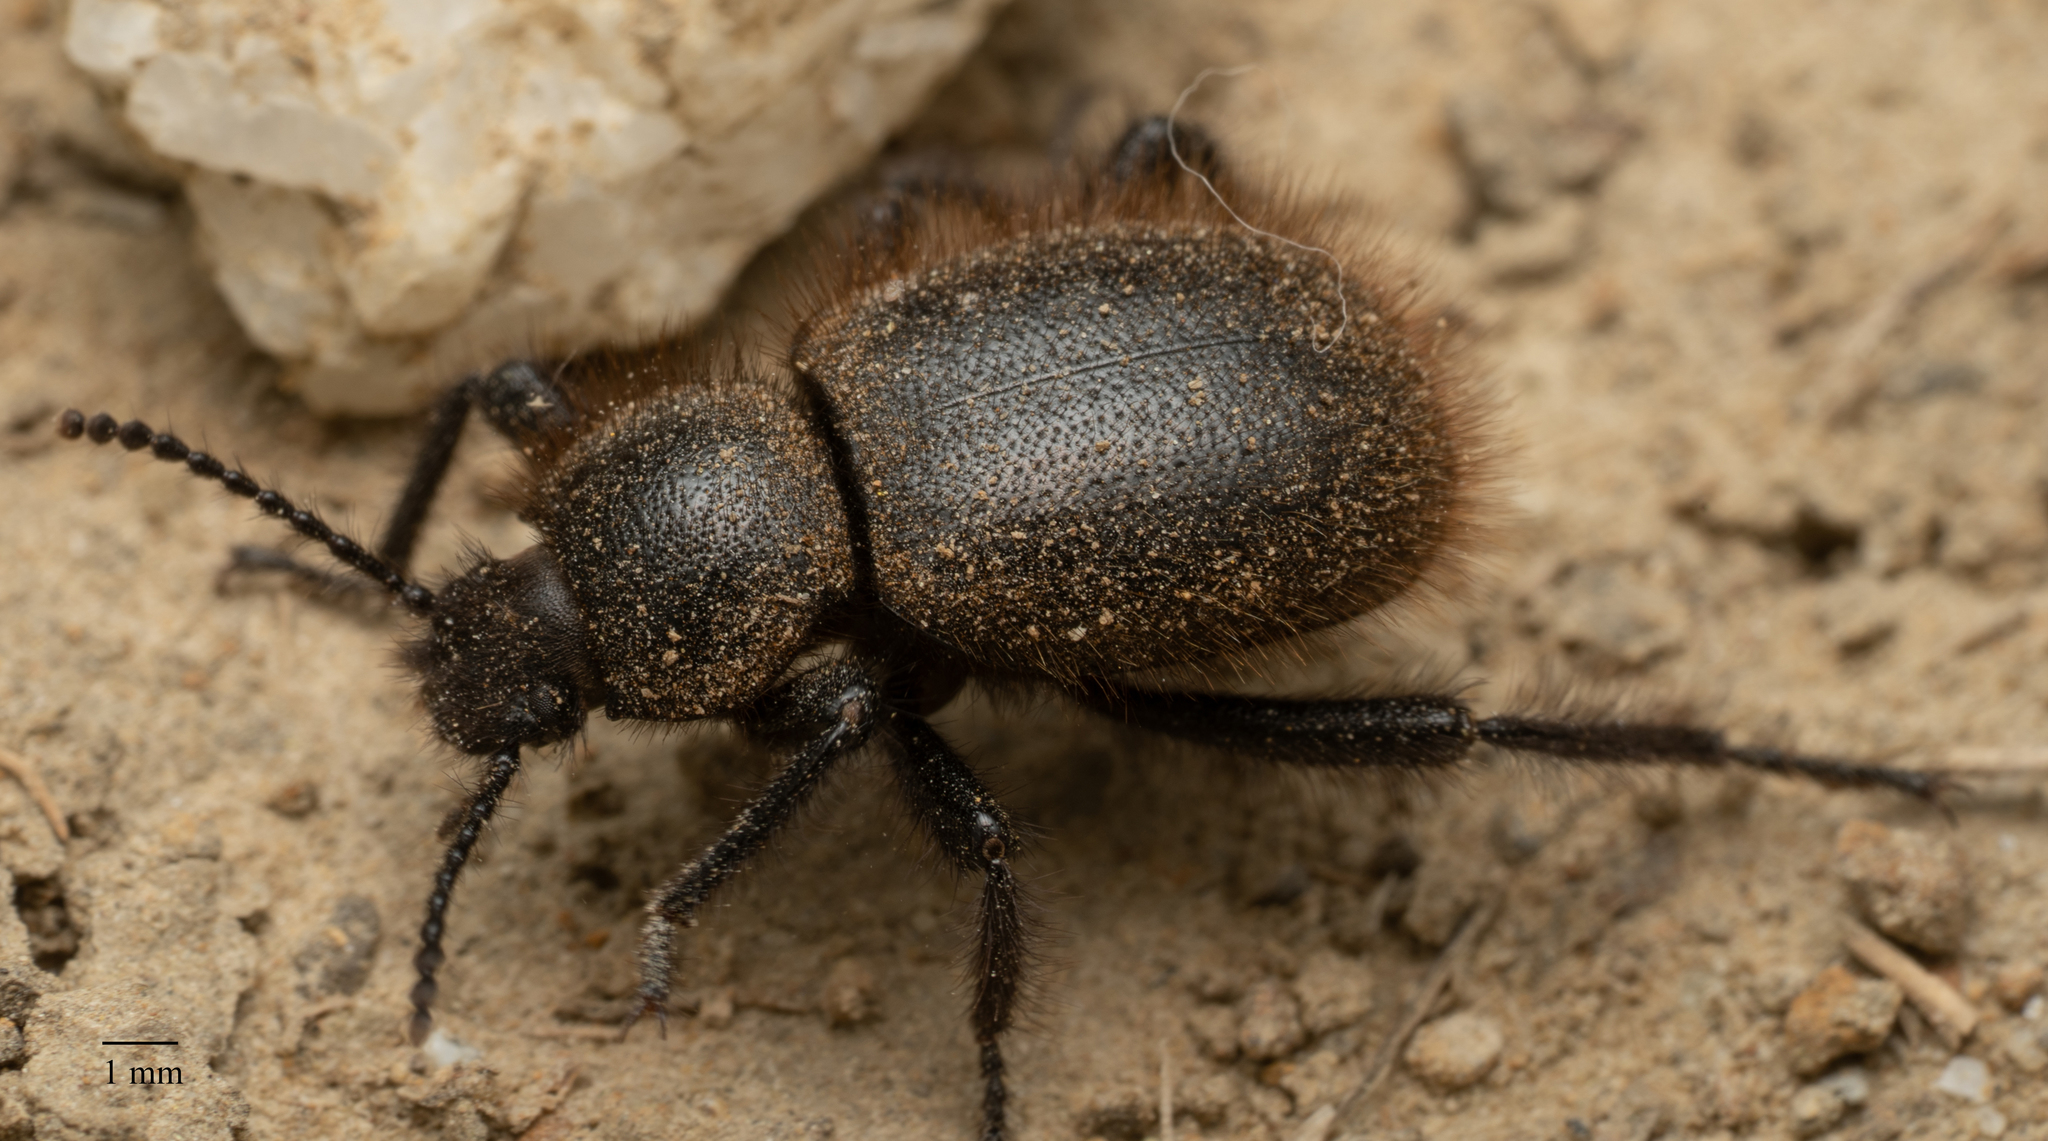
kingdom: Animalia
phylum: Arthropoda
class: Insecta
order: Coleoptera
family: Tenebrionidae
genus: Eleodes
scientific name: Eleodes osculans
